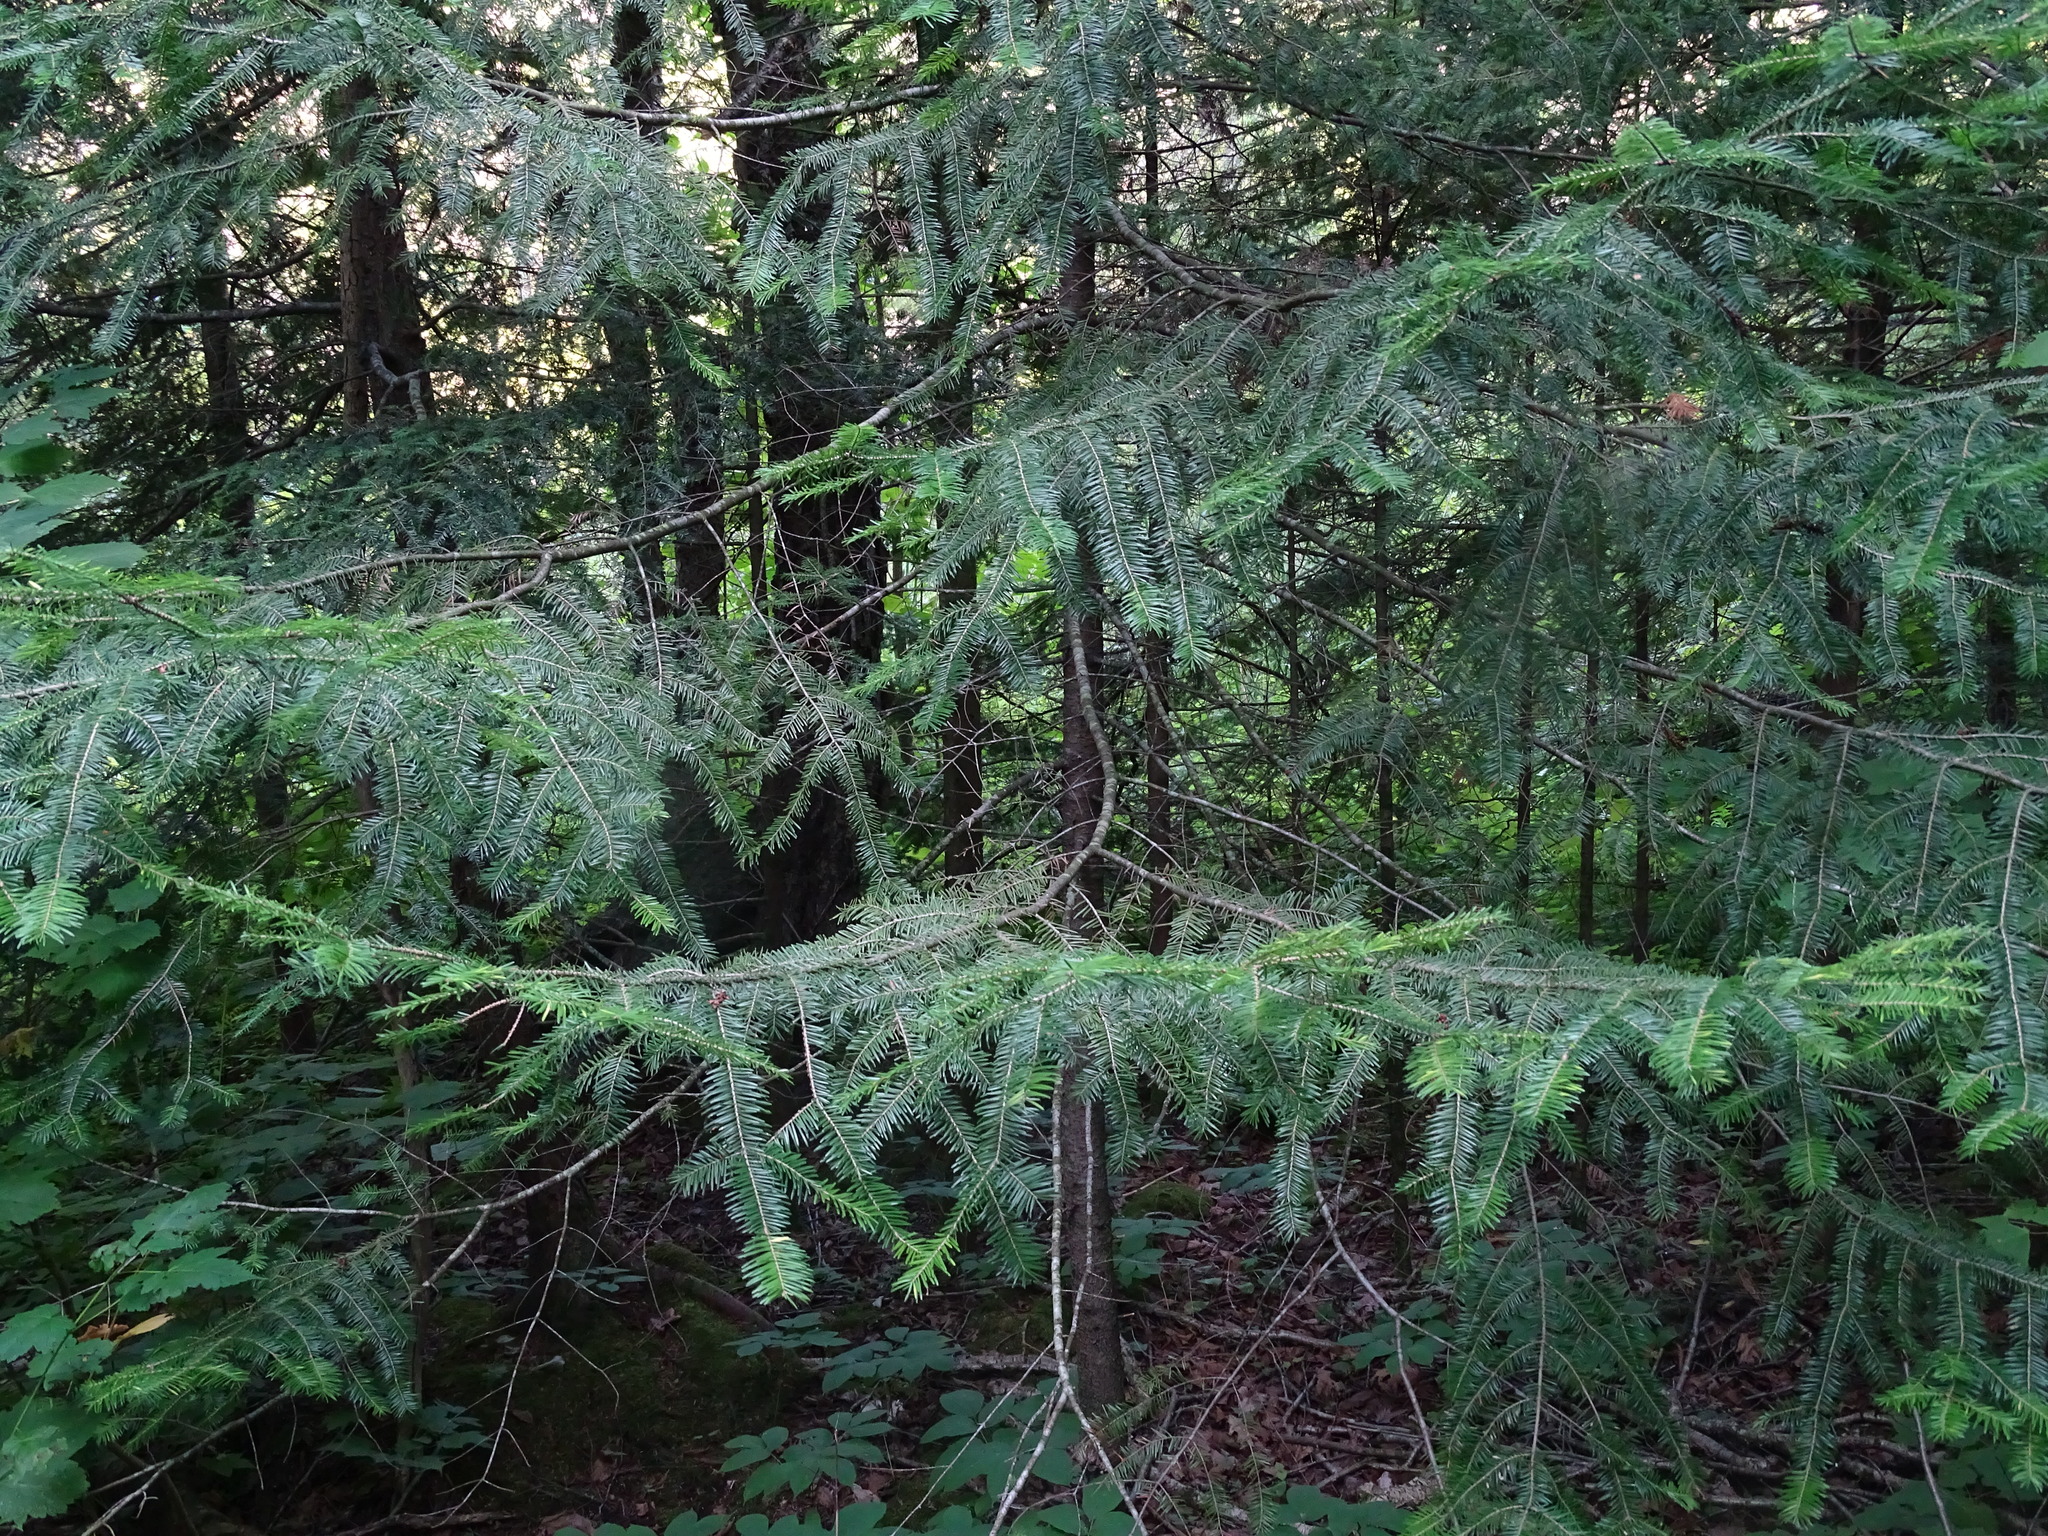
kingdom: Plantae
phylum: Tracheophyta
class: Pinopsida
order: Pinales
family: Pinaceae
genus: Abies
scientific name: Abies balsamea
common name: Balsam fir
